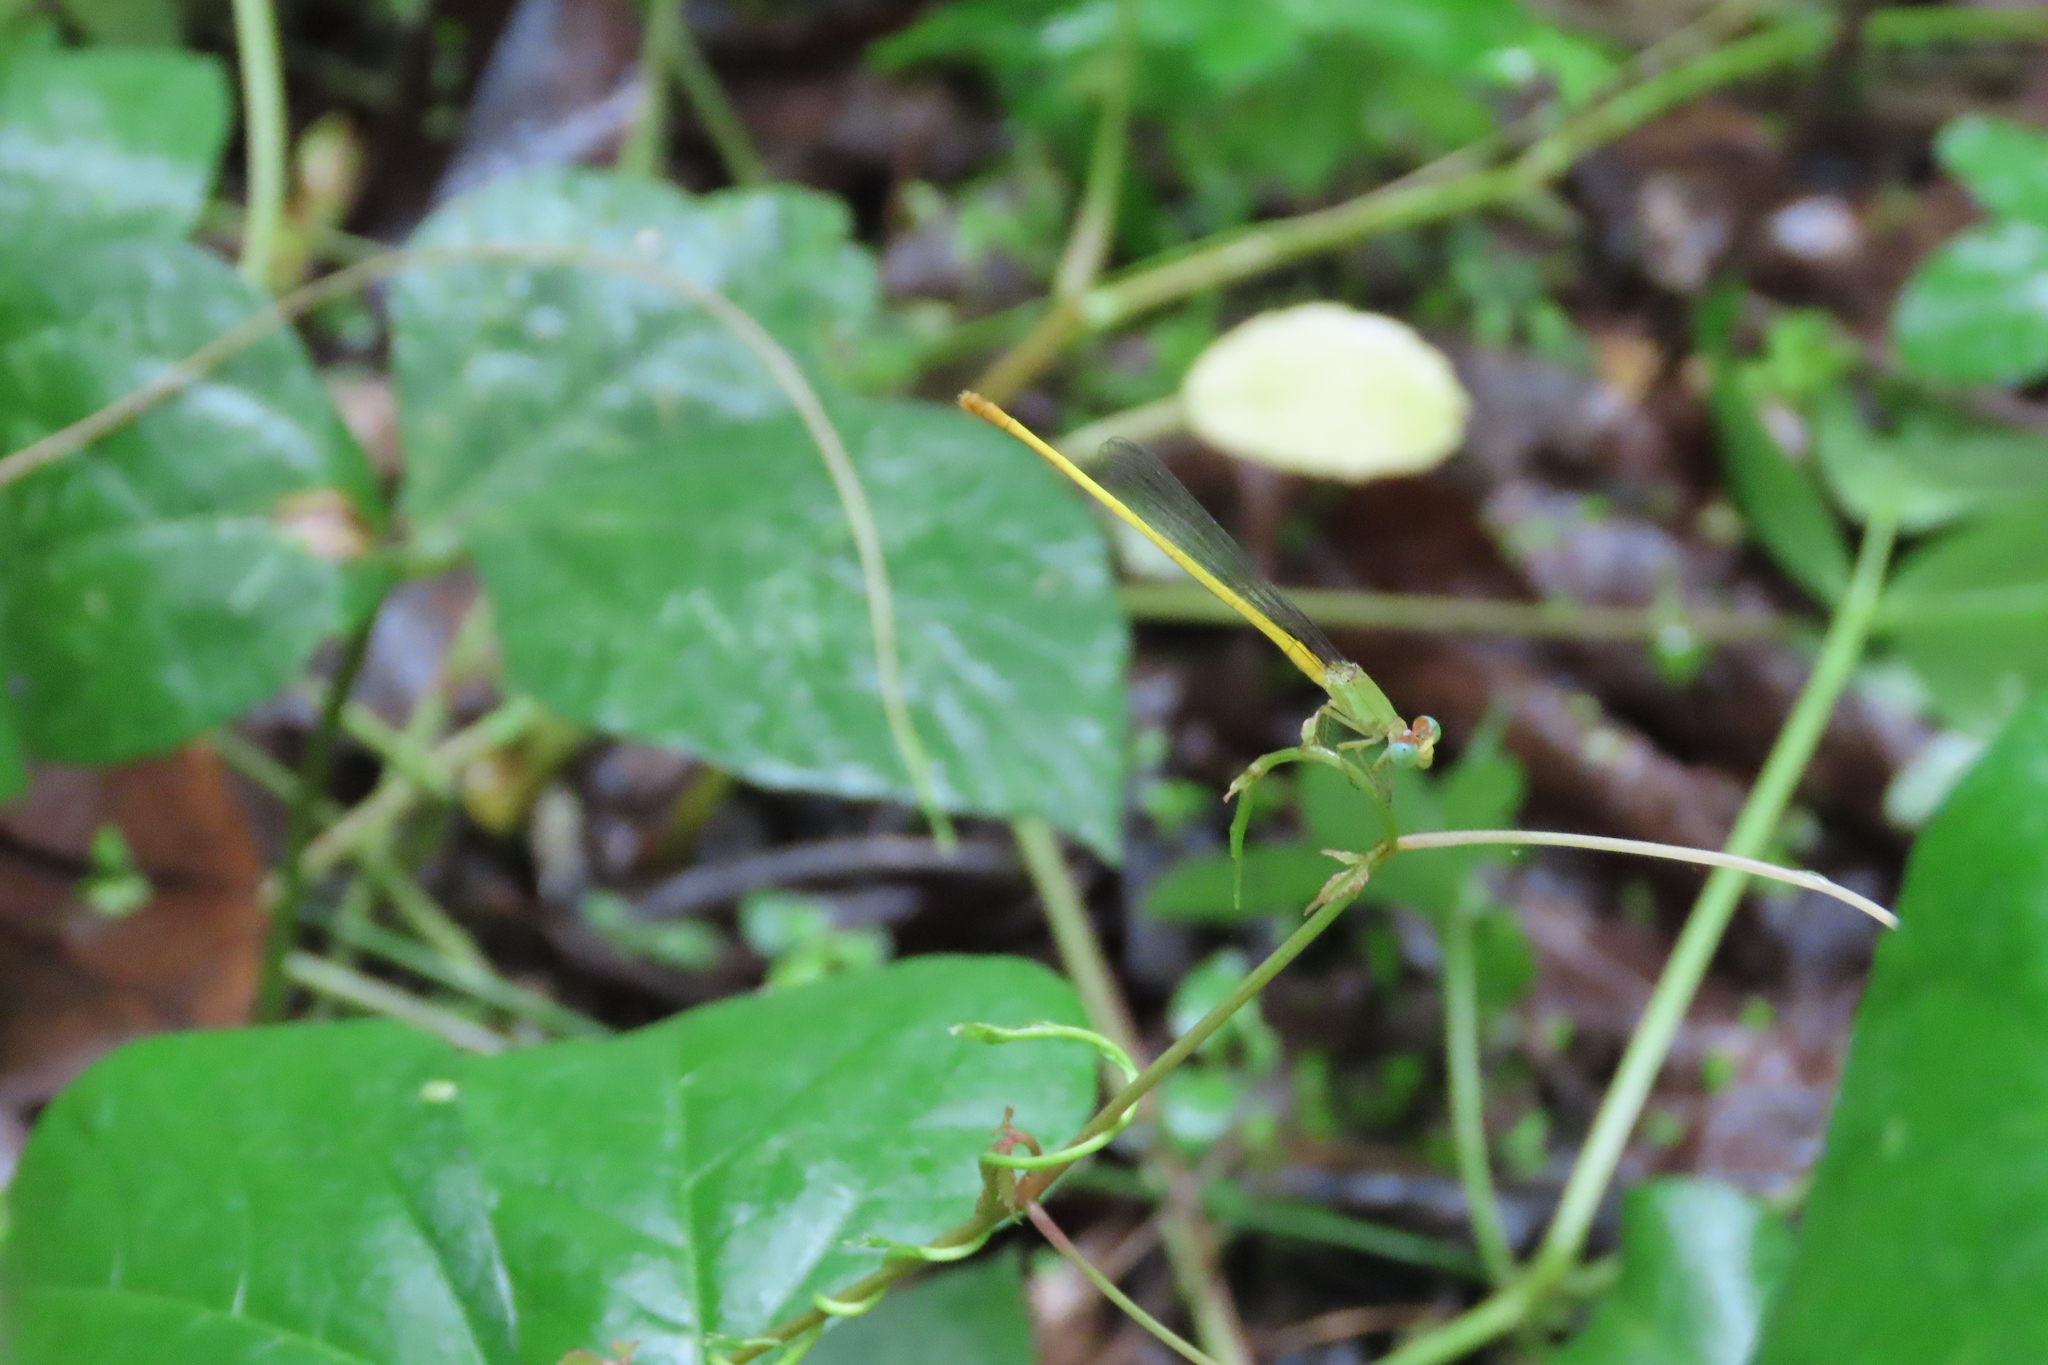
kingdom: Animalia
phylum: Arthropoda
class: Insecta
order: Odonata
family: Coenagrionidae
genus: Ceriagrion
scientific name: Ceriagrion coromandelianum
